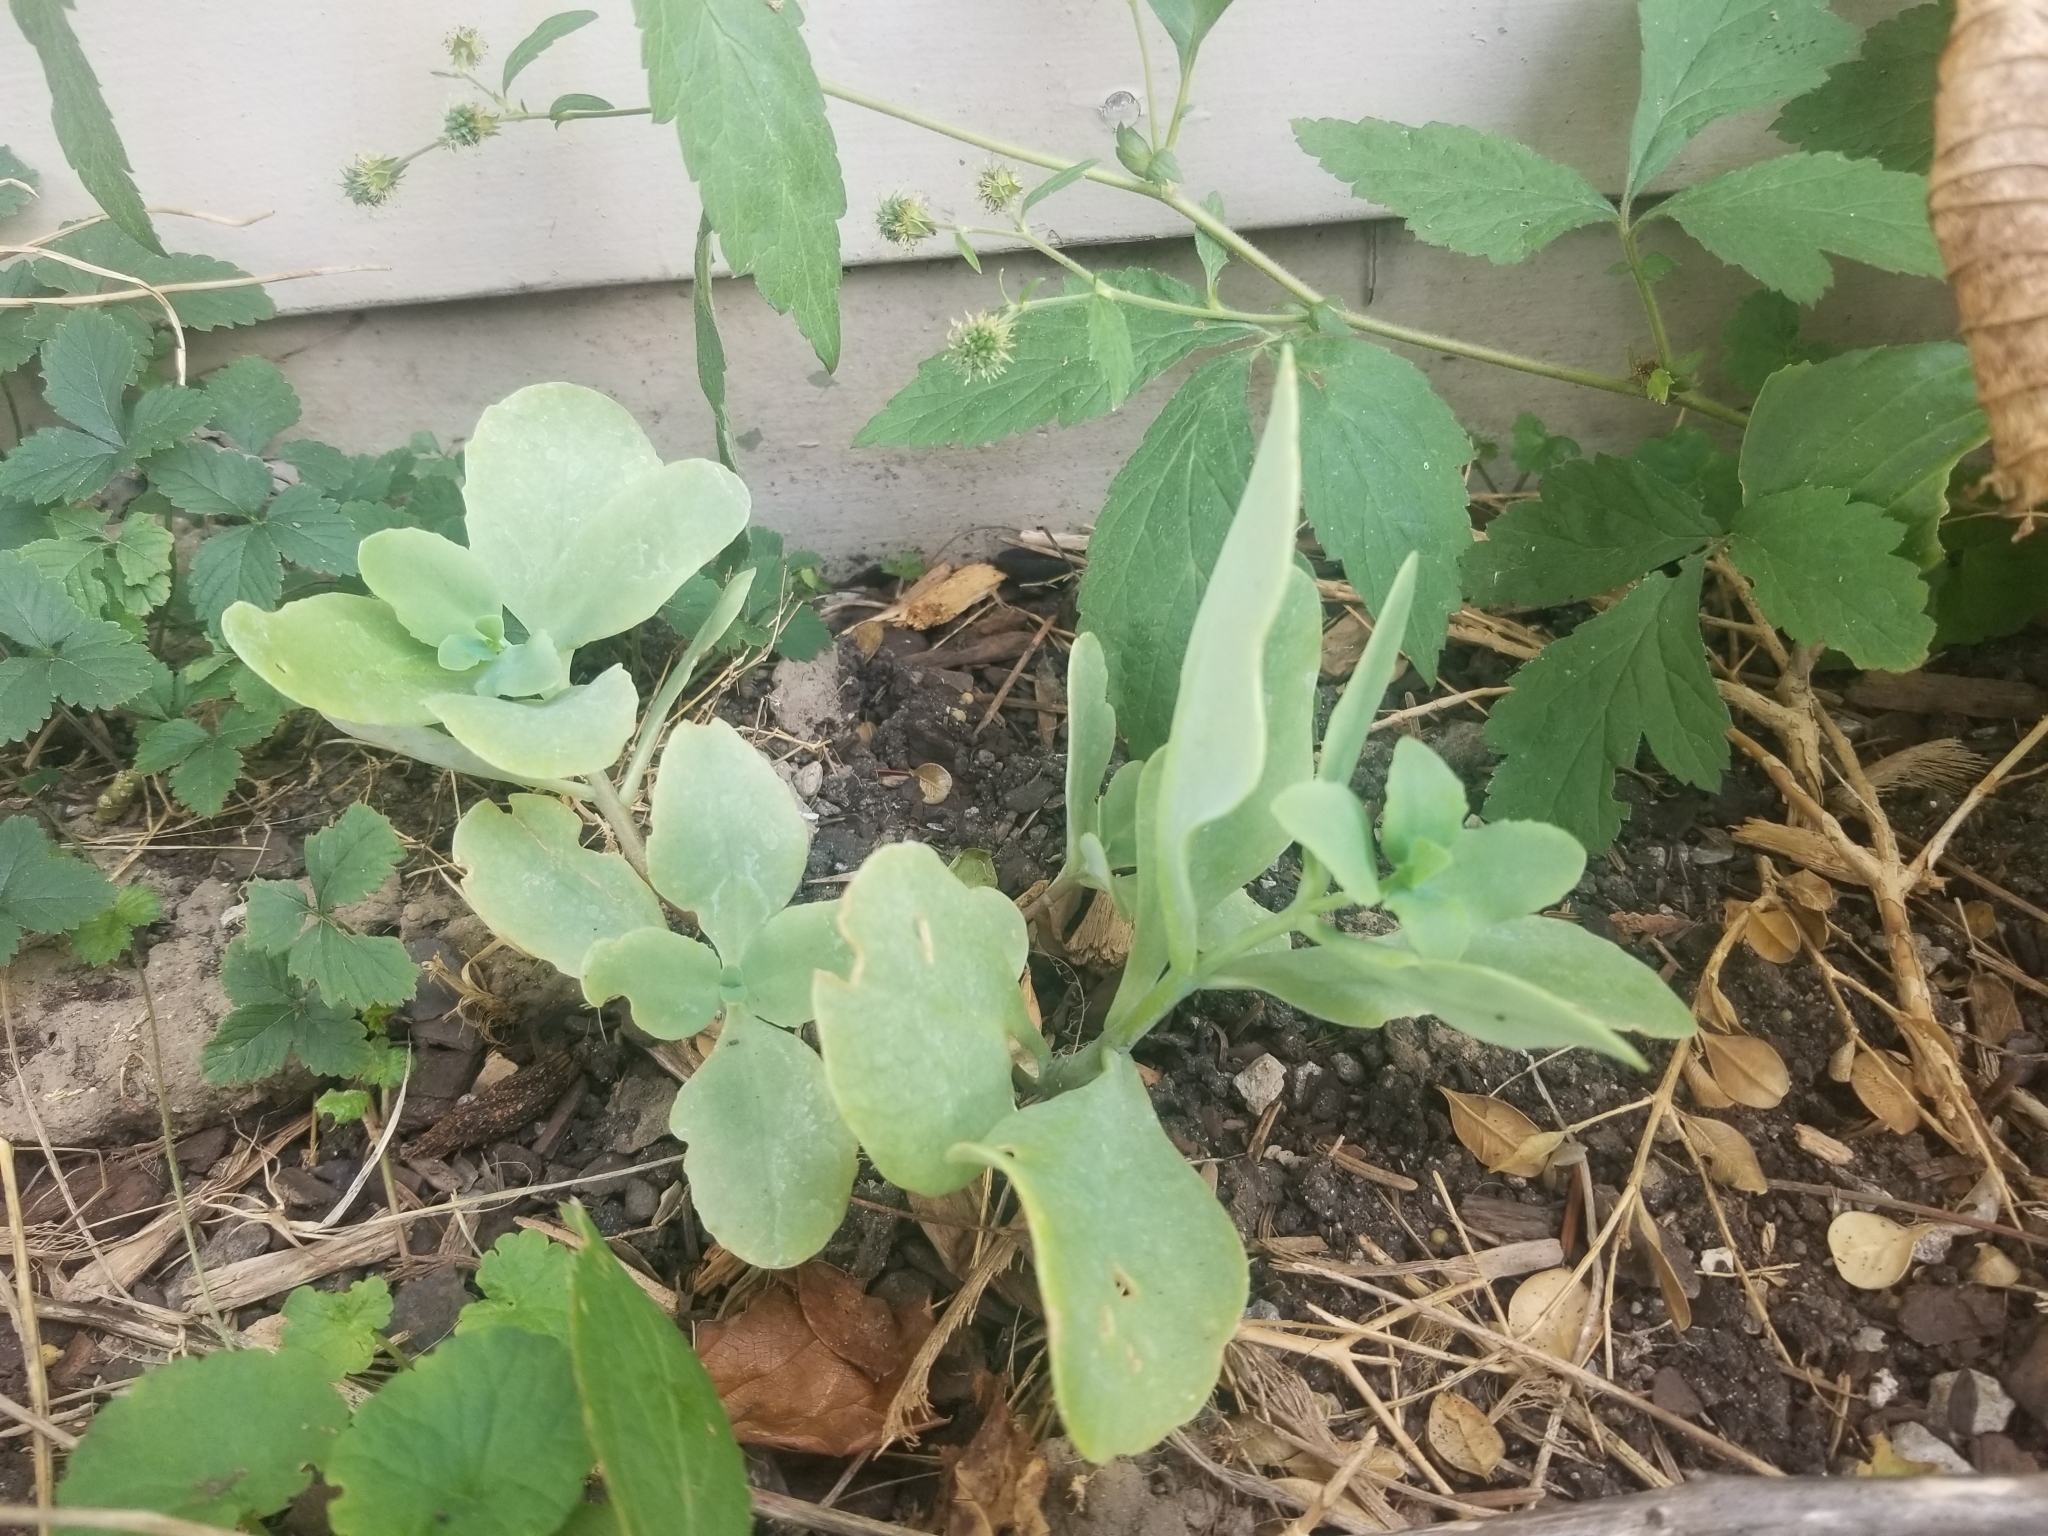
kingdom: Plantae
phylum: Tracheophyta
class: Magnoliopsida
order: Saxifragales
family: Crassulaceae
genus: Hylotelephium
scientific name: Hylotelephium erythrostictum
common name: Garden stonecrop
